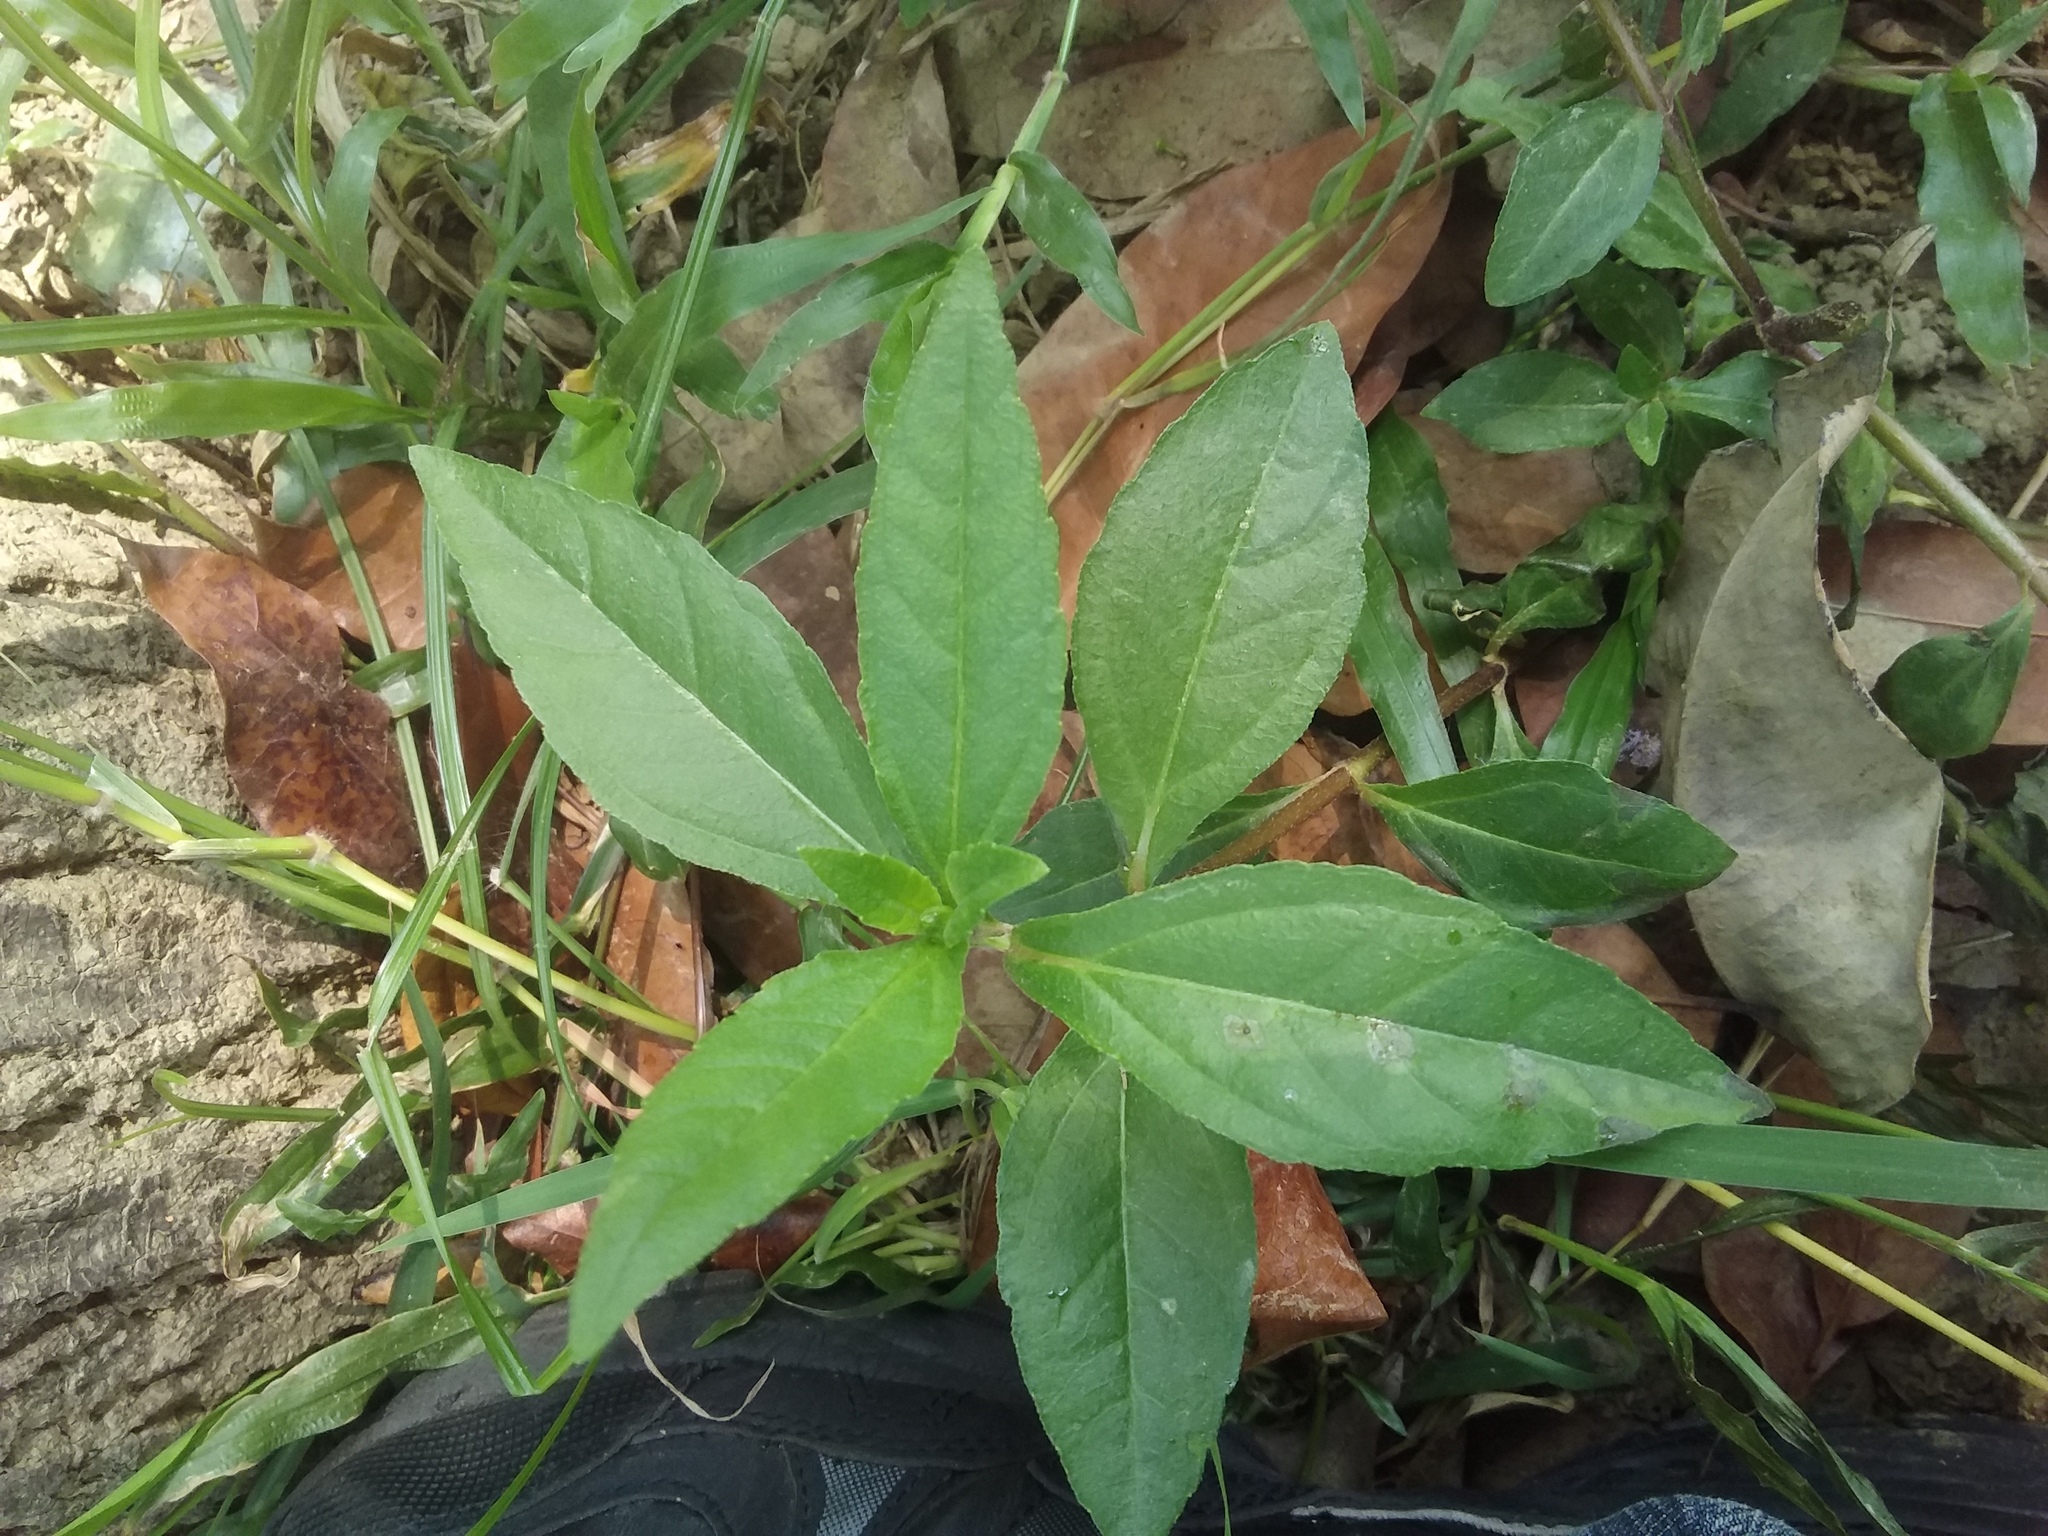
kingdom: Plantae
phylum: Tracheophyta
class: Magnoliopsida
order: Asterales
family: Asteraceae
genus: Eclipta
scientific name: Eclipta prostrata
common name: False daisy
